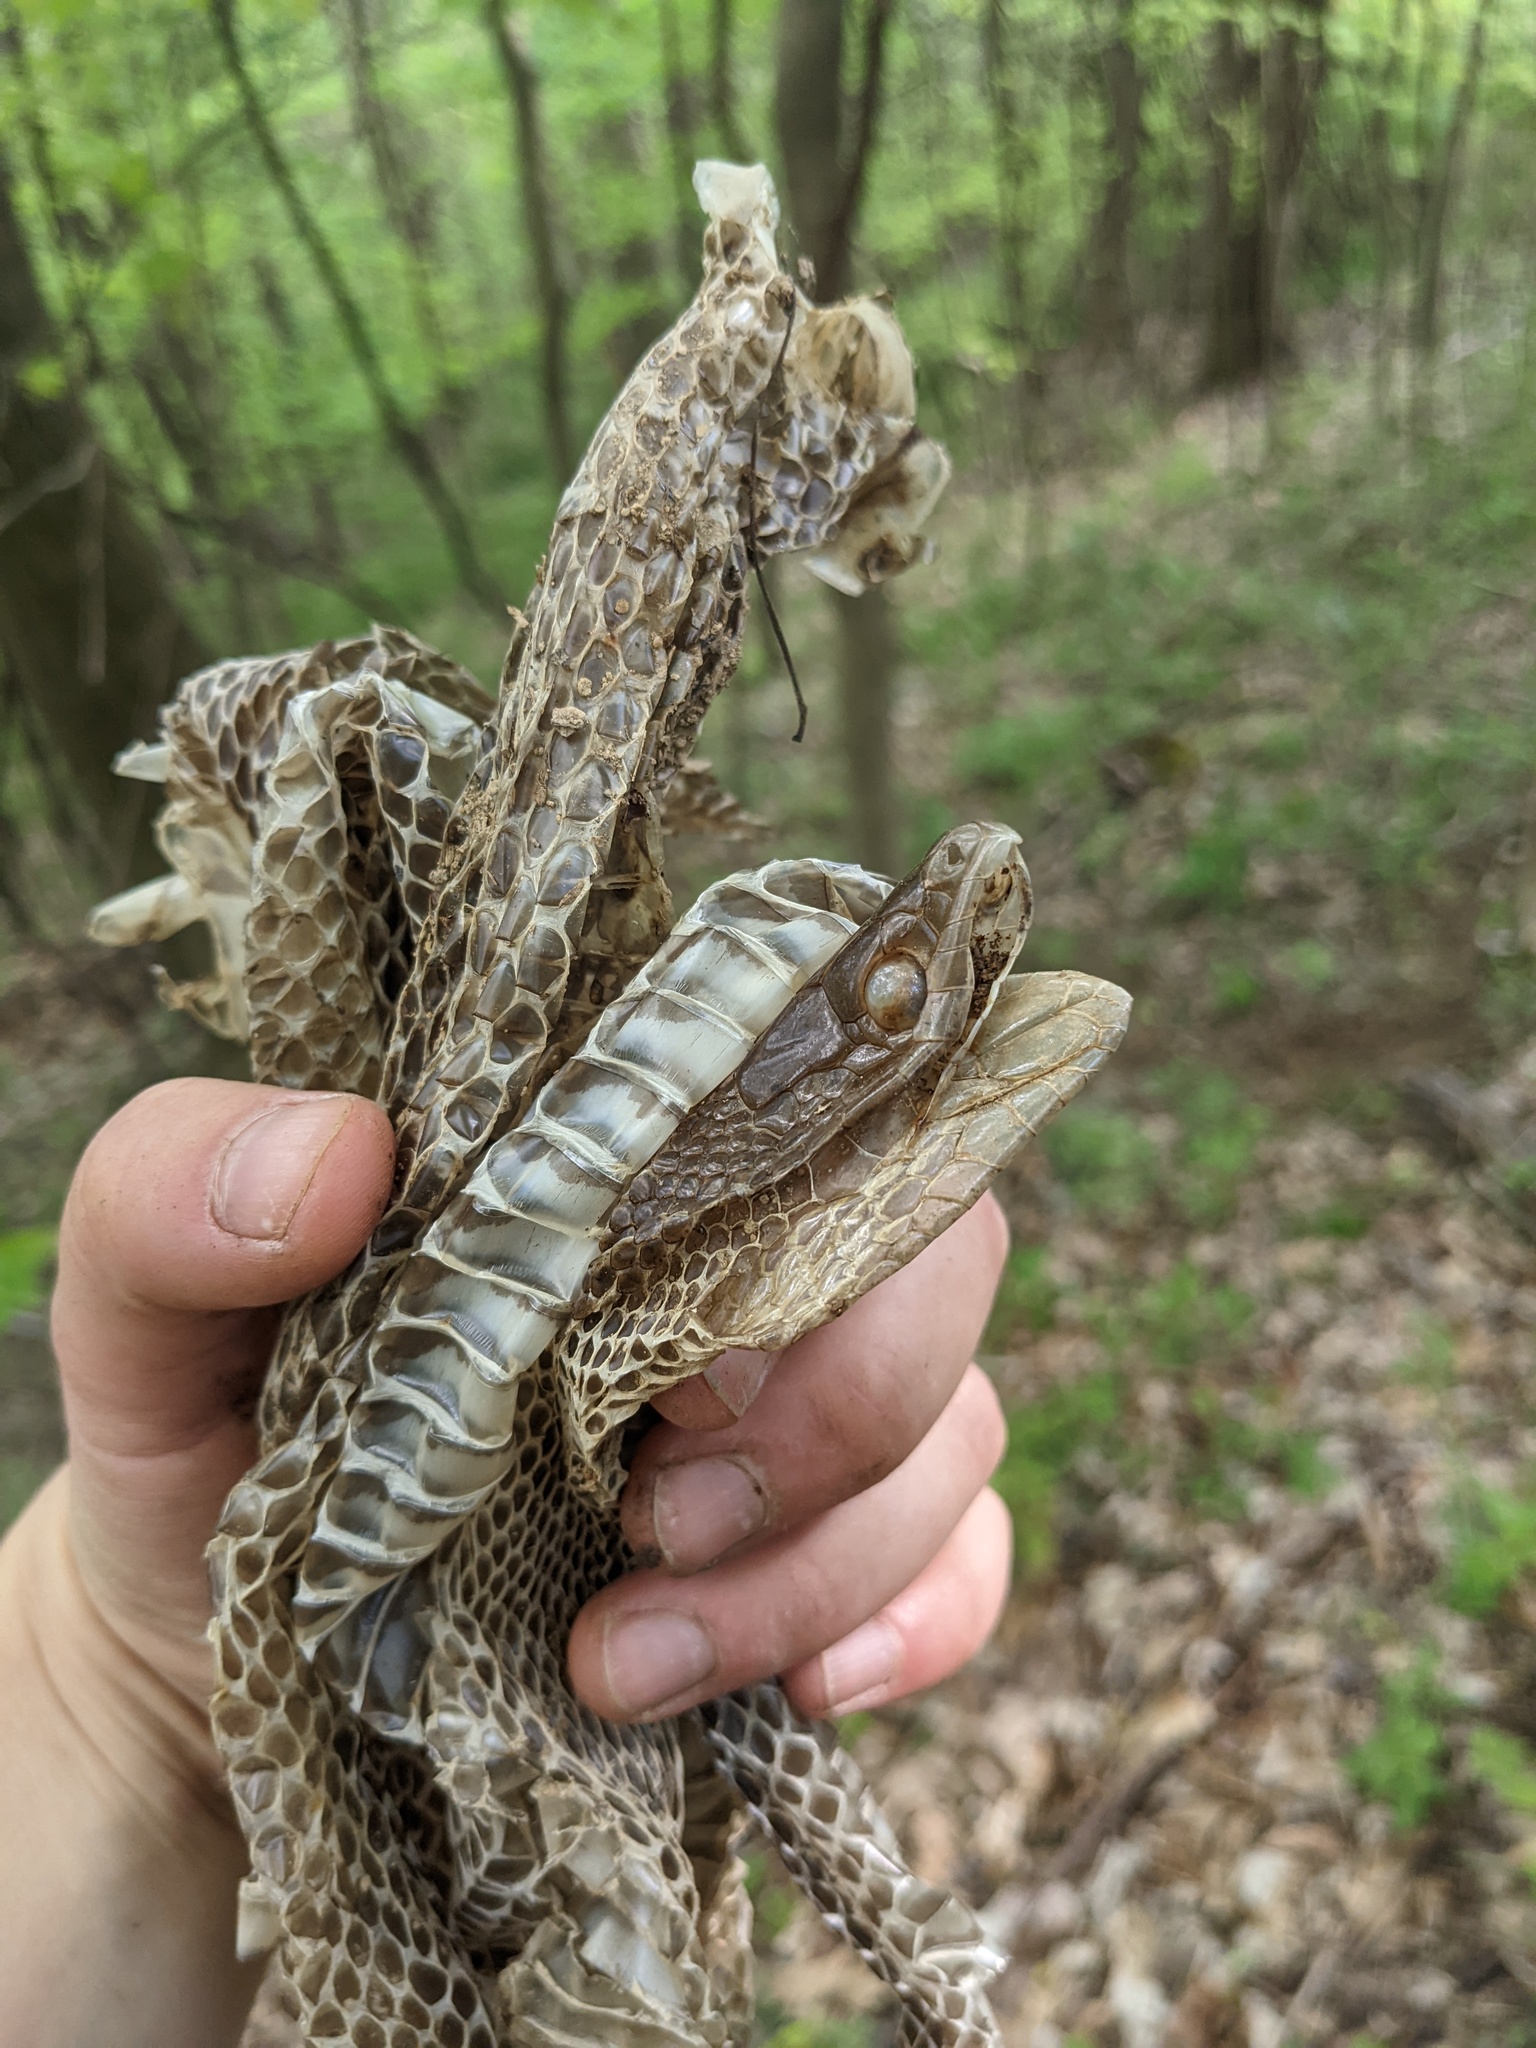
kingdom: Animalia
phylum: Chordata
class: Squamata
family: Colubridae
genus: Pantherophis
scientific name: Pantherophis spiloides
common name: Gray rat snake
